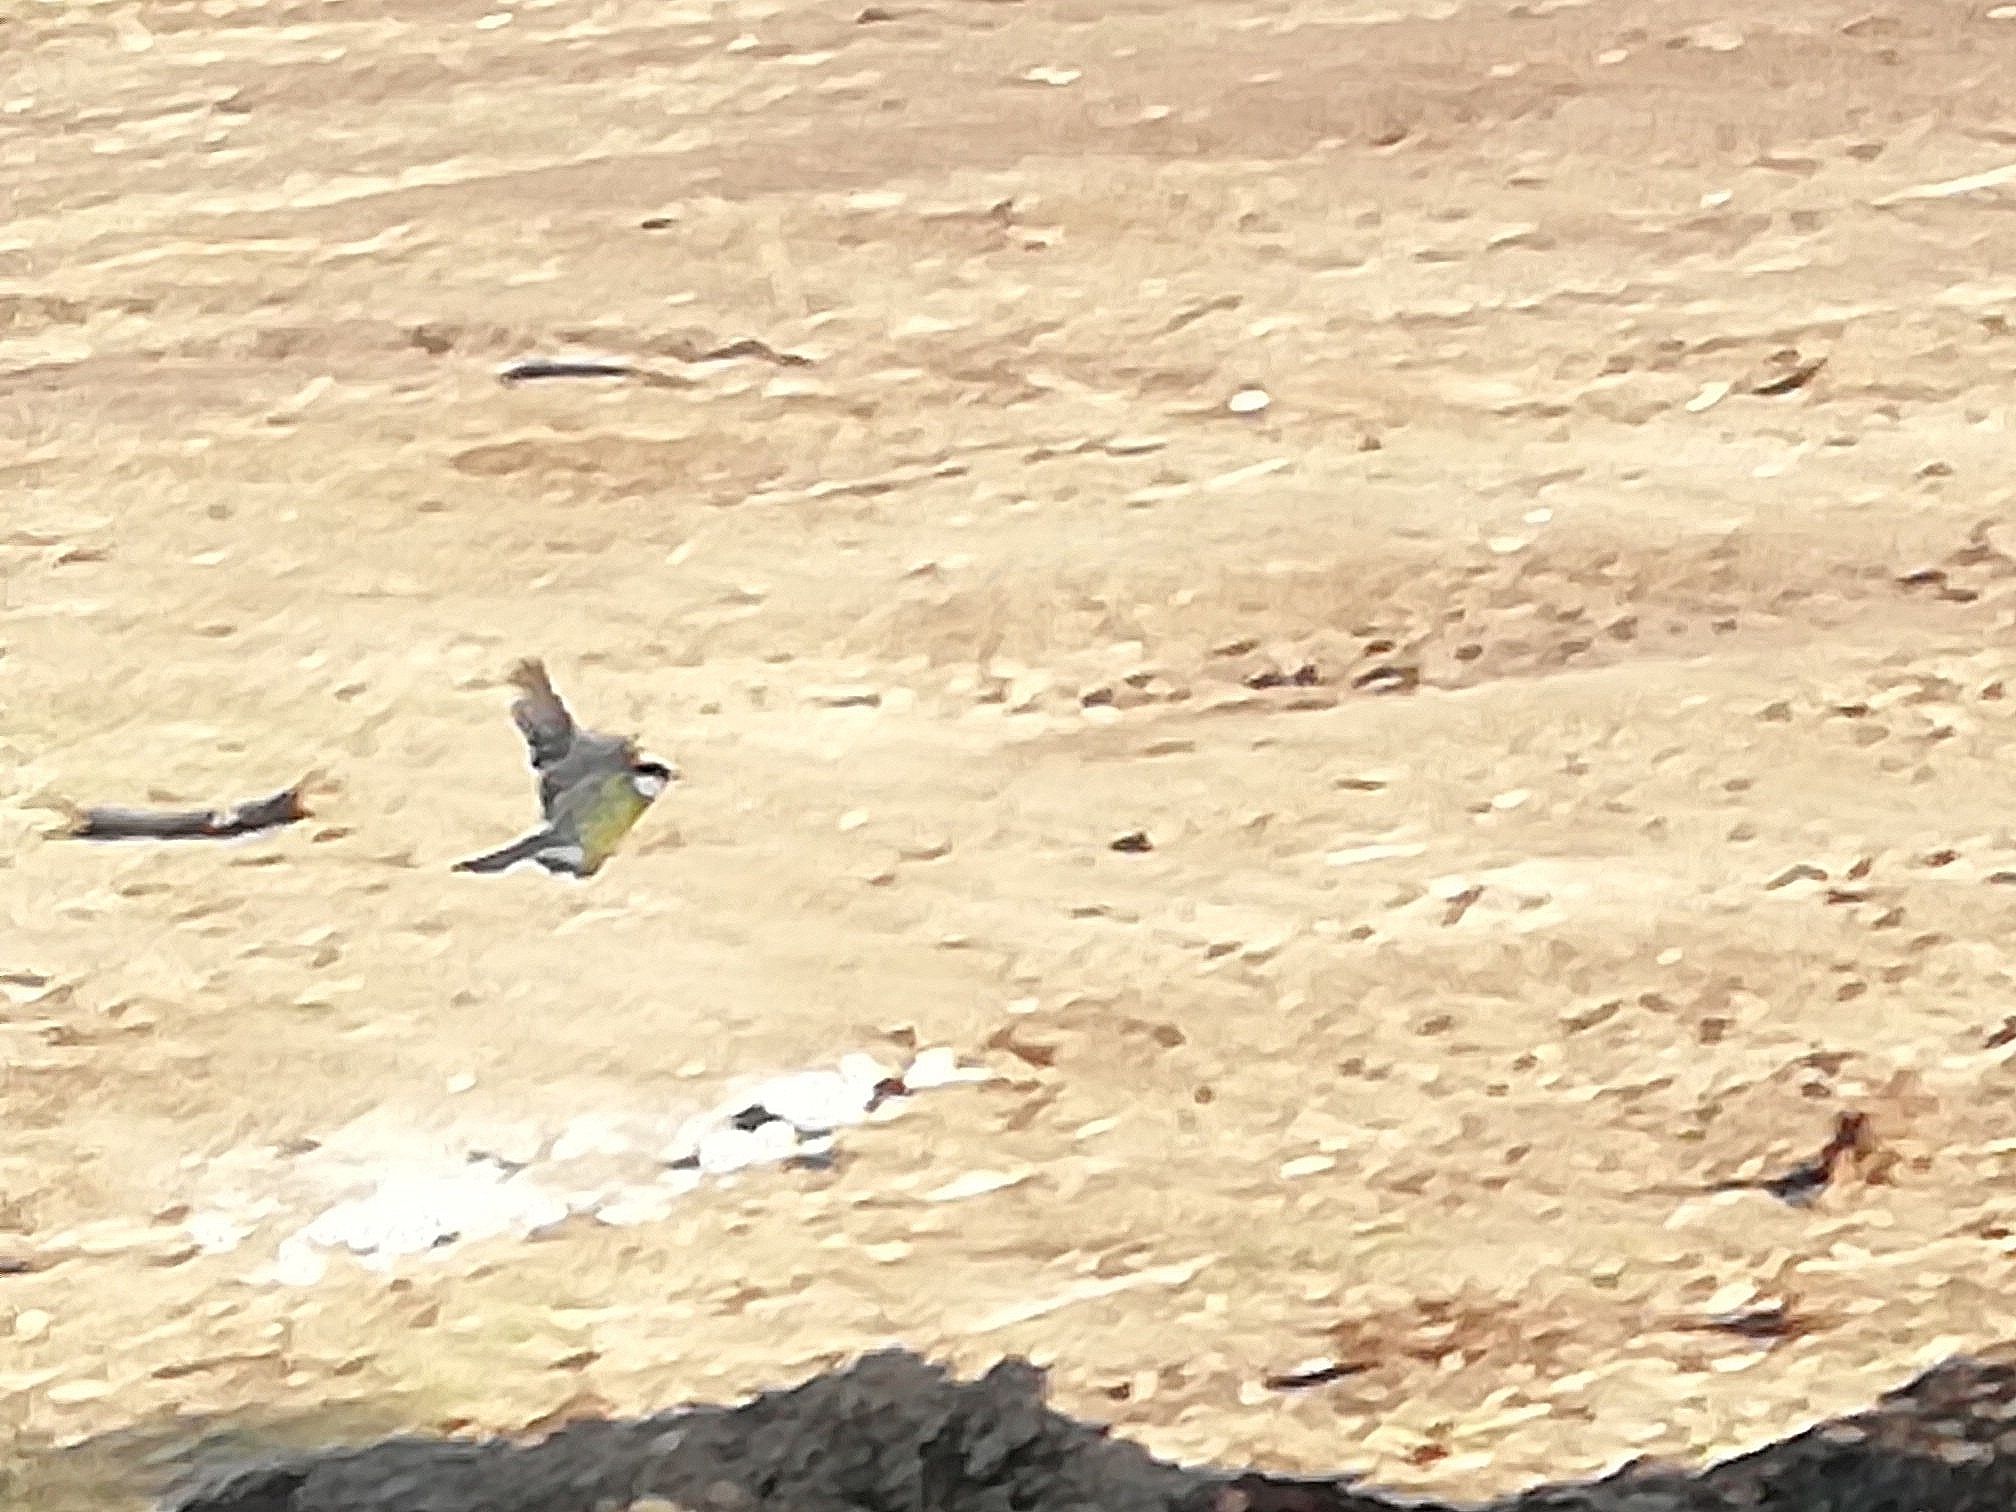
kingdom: Animalia
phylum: Chordata
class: Aves
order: Passeriformes
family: Paridae
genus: Parus
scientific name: Parus major
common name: Great tit
